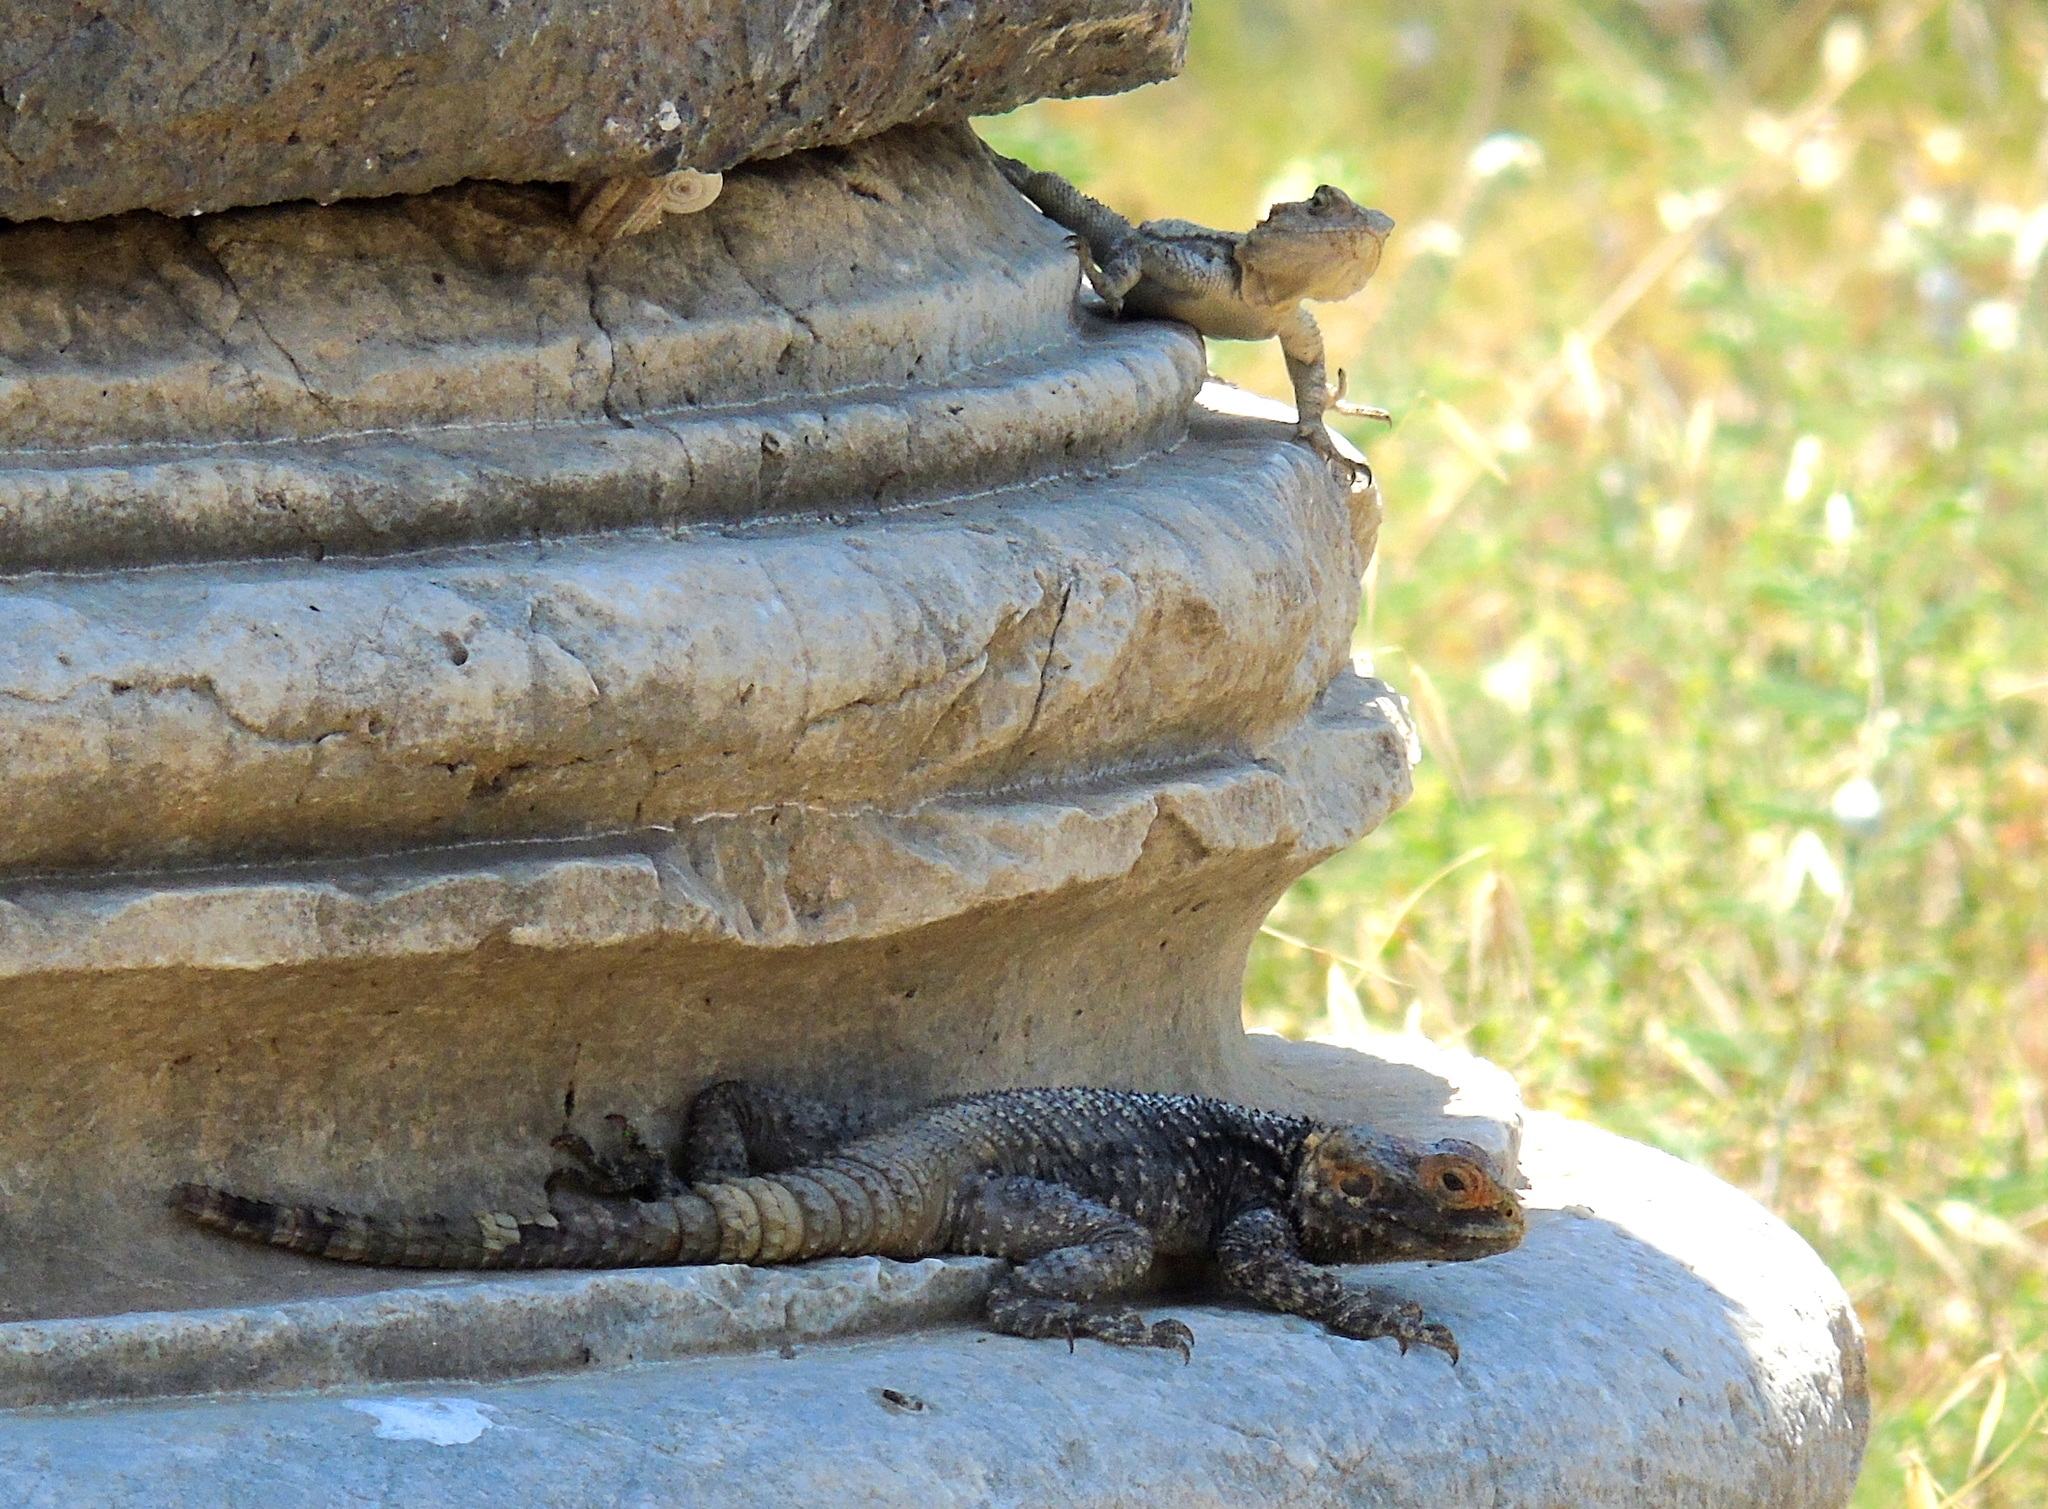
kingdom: Animalia
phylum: Chordata
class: Squamata
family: Agamidae
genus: Stellagama
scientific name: Stellagama stellio
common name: Starred agama
